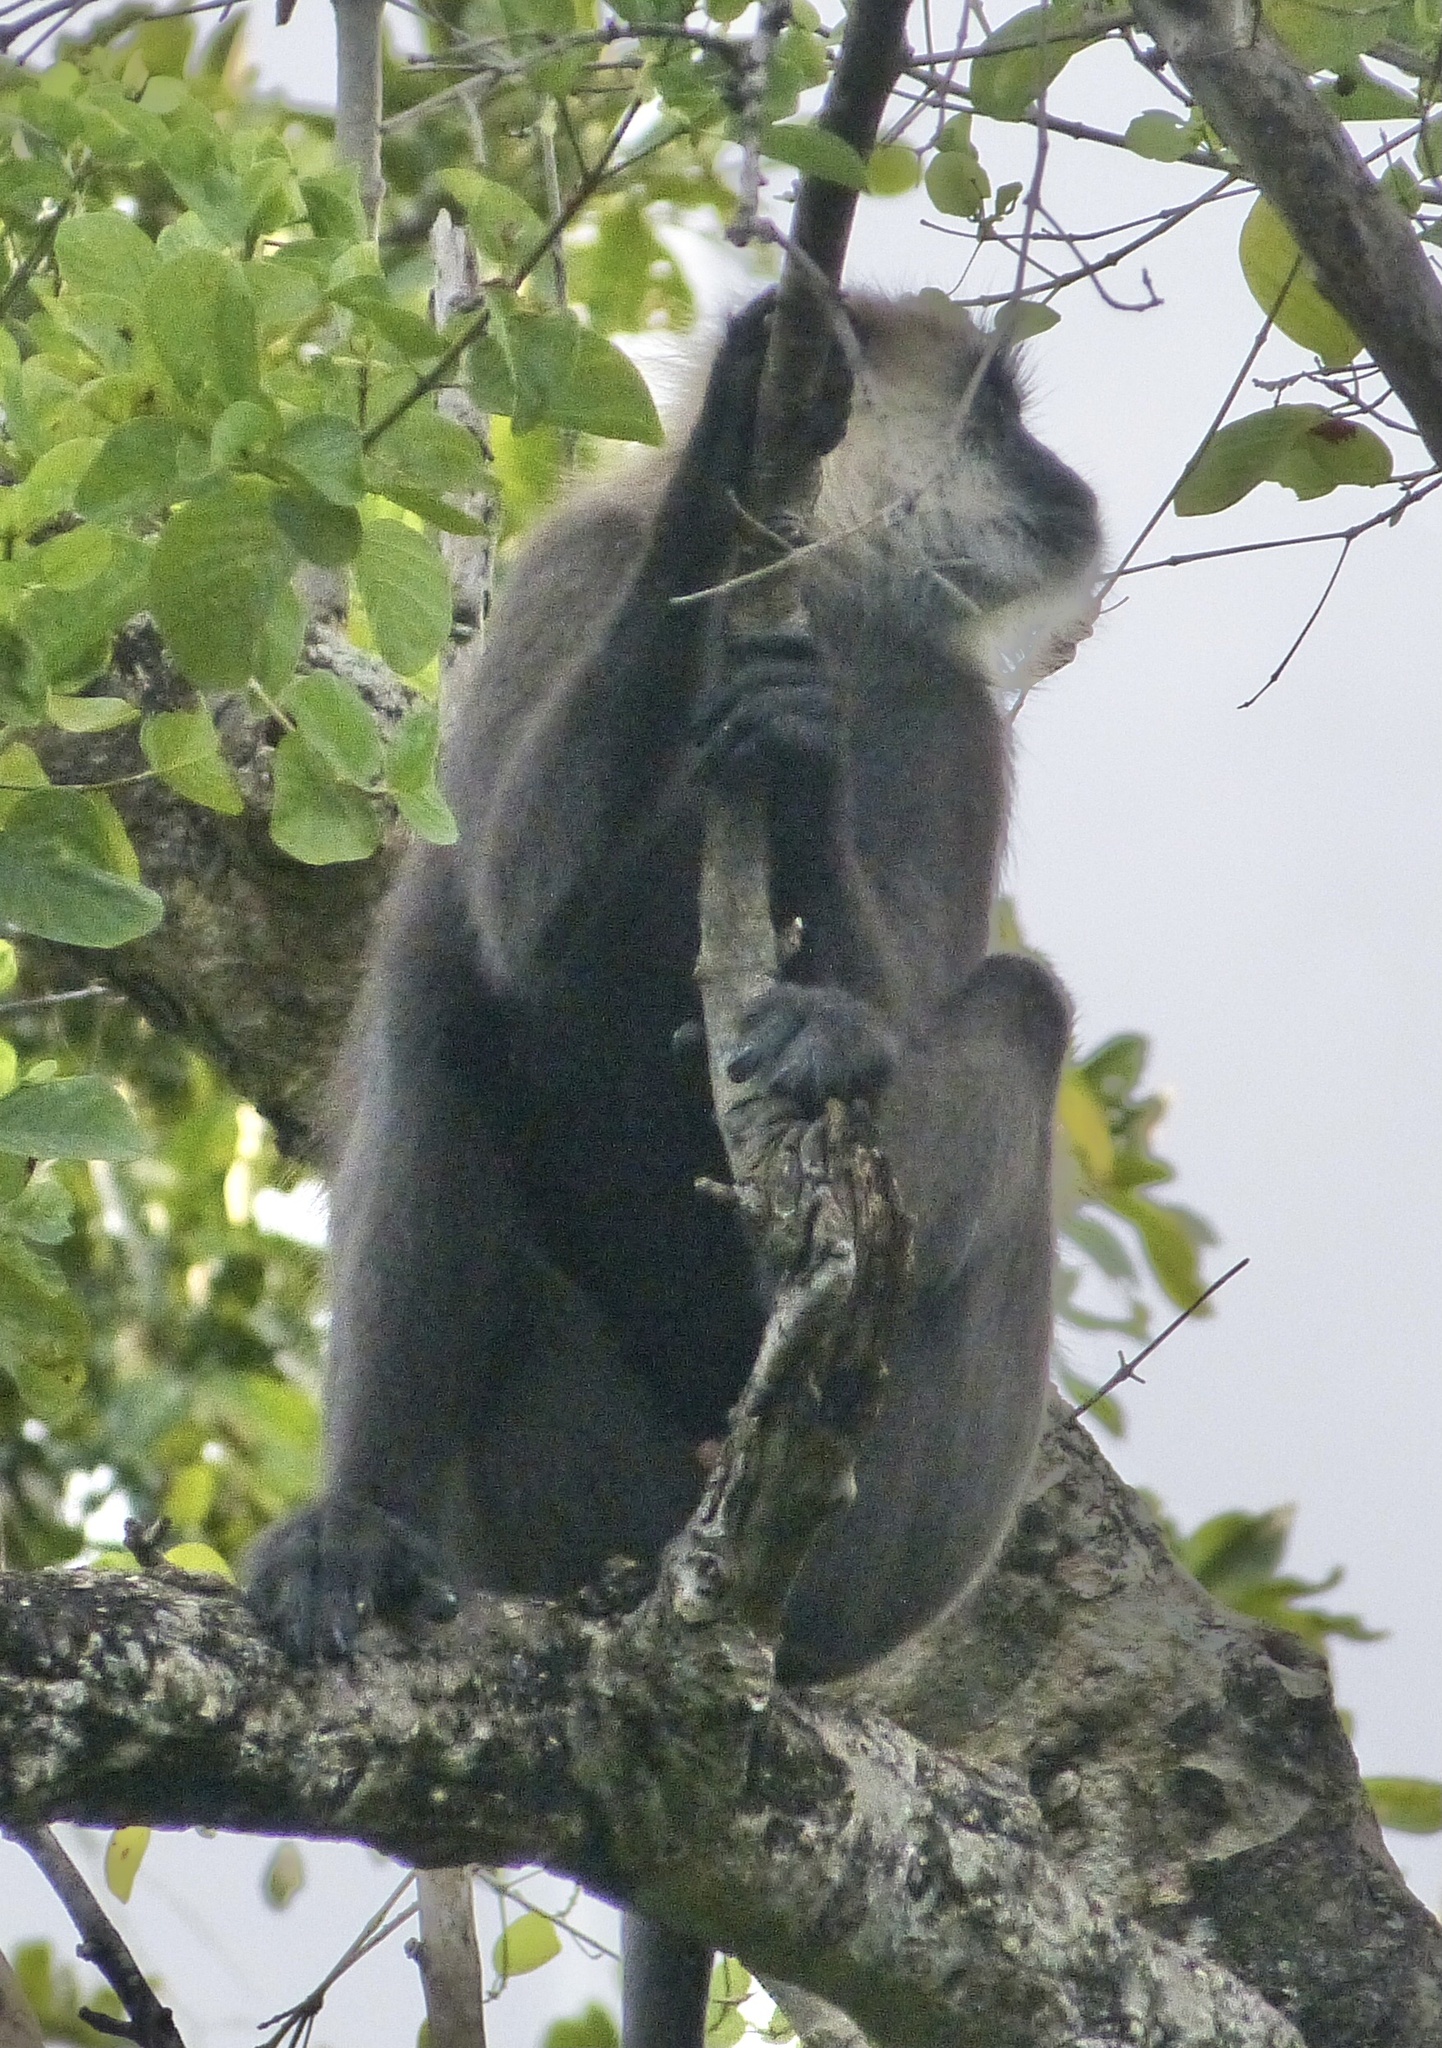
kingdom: Animalia
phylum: Chordata
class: Mammalia
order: Primates
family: Cercopithecidae
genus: Semnopithecus
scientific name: Semnopithecus priam
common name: Tufted gray langur
